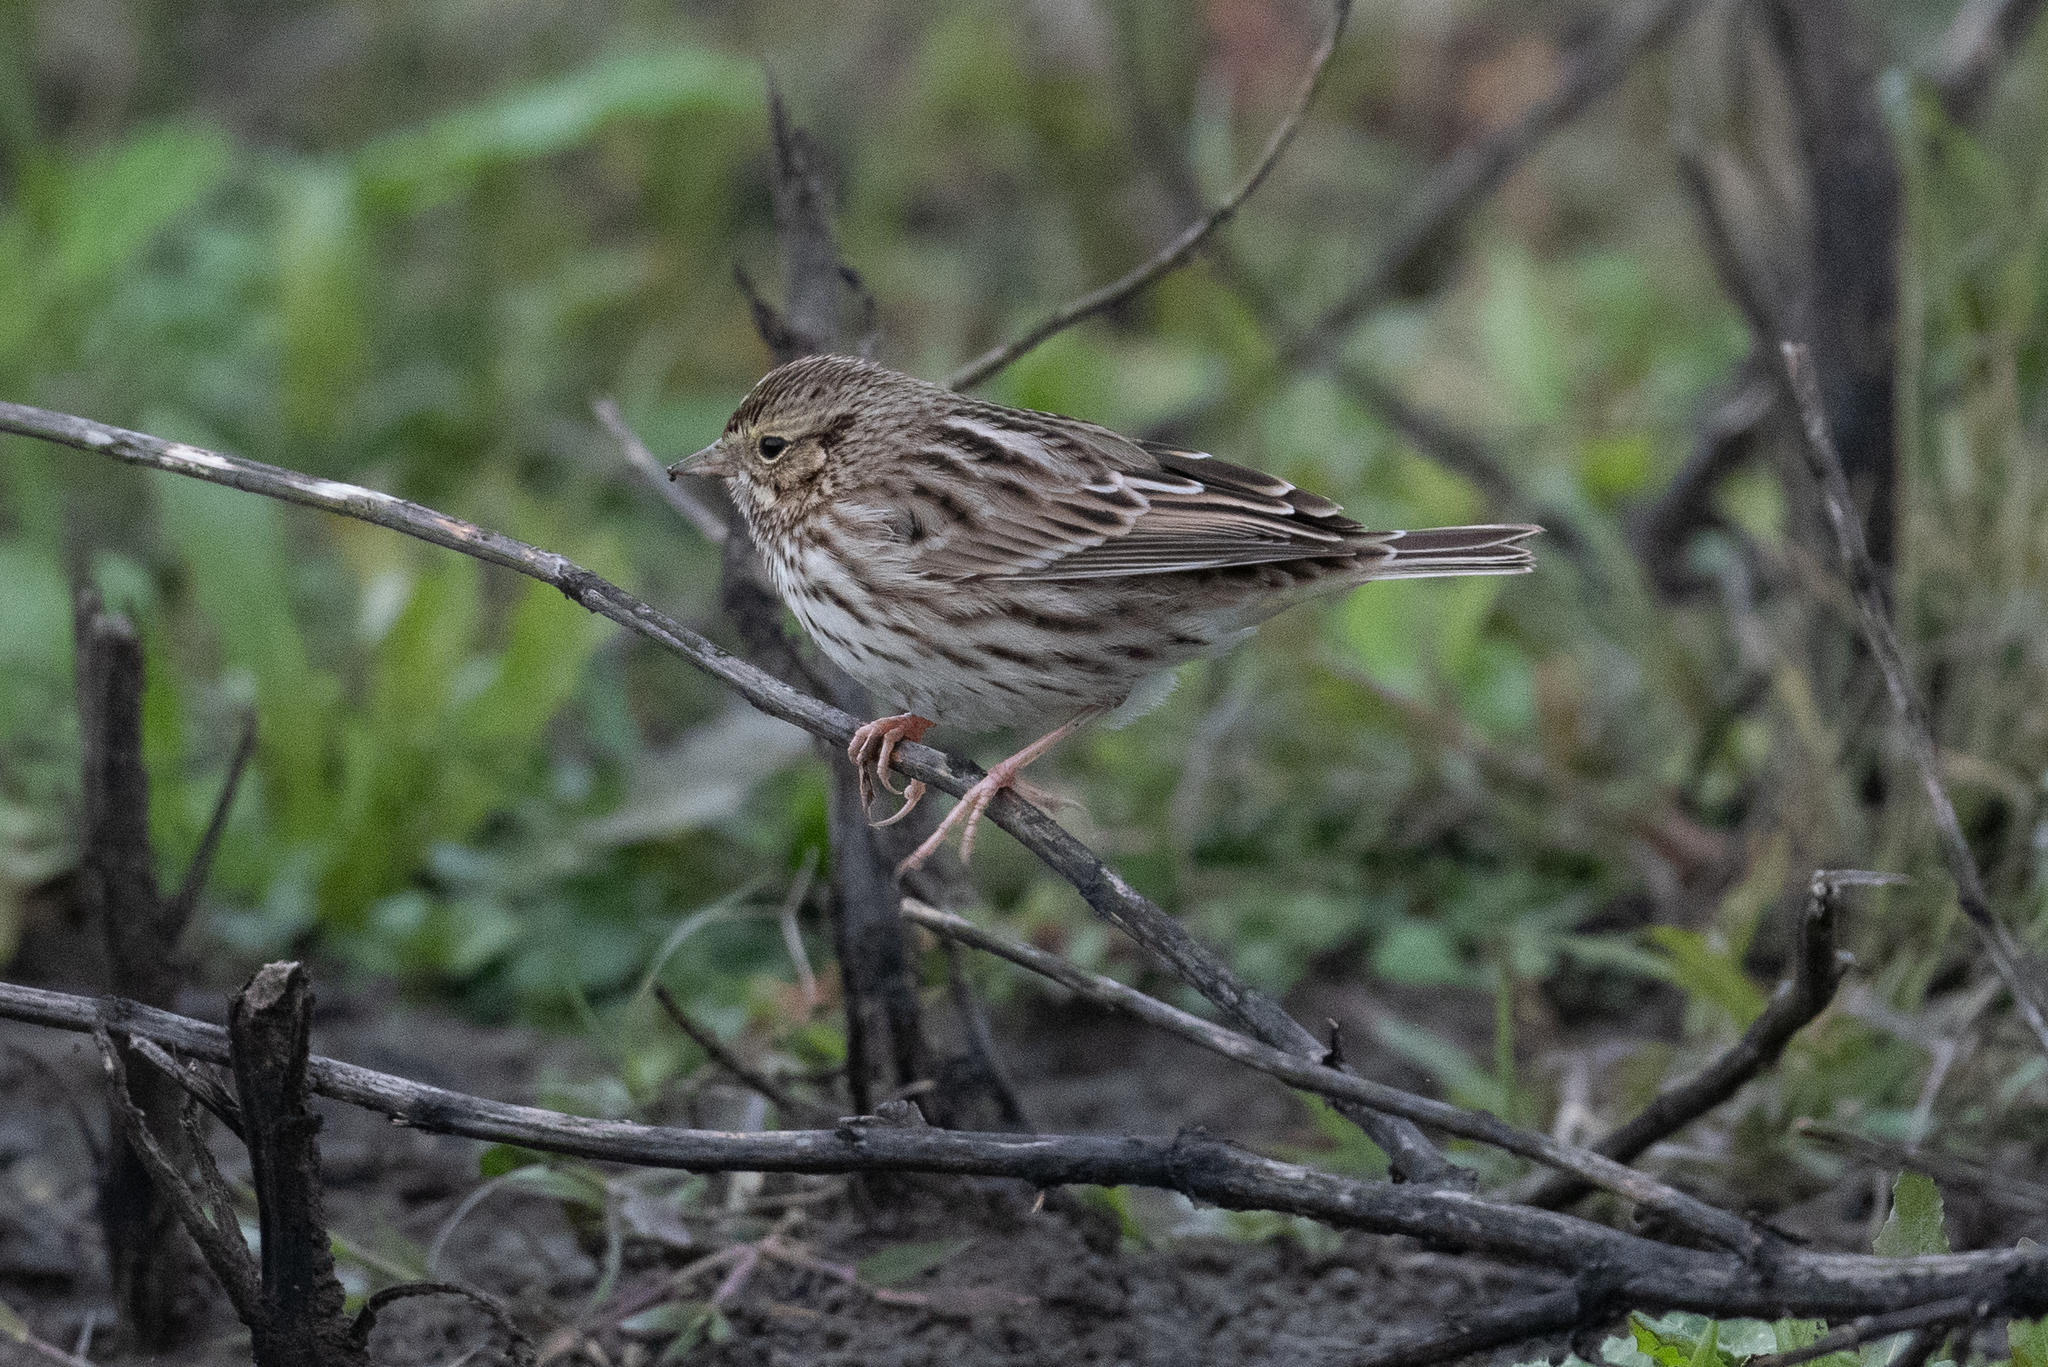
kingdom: Animalia
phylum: Chordata
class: Aves
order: Passeriformes
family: Passerellidae
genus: Passerculus
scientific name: Passerculus sandwichensis
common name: Savannah sparrow
